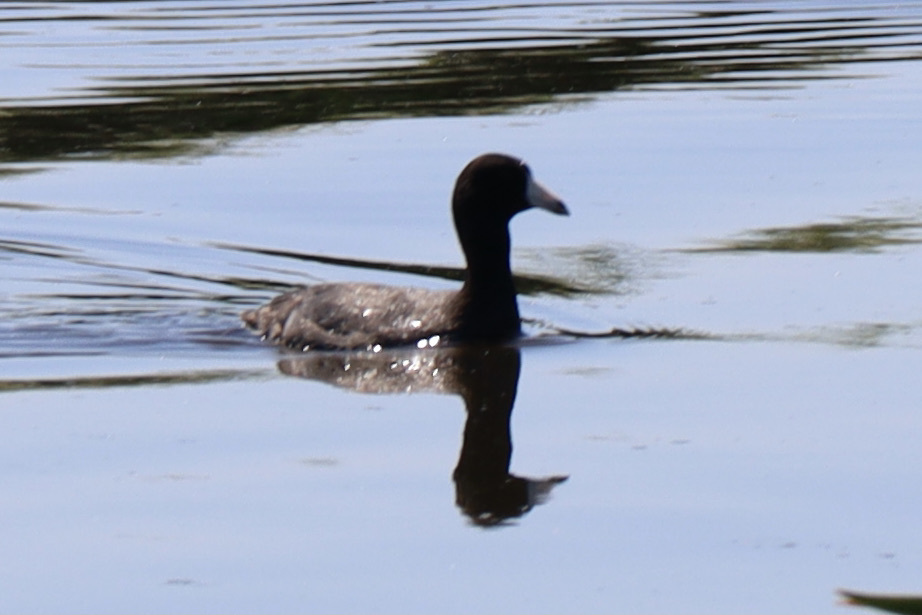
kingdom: Animalia
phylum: Chordata
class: Aves
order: Gruiformes
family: Rallidae
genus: Fulica
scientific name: Fulica americana
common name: American coot
